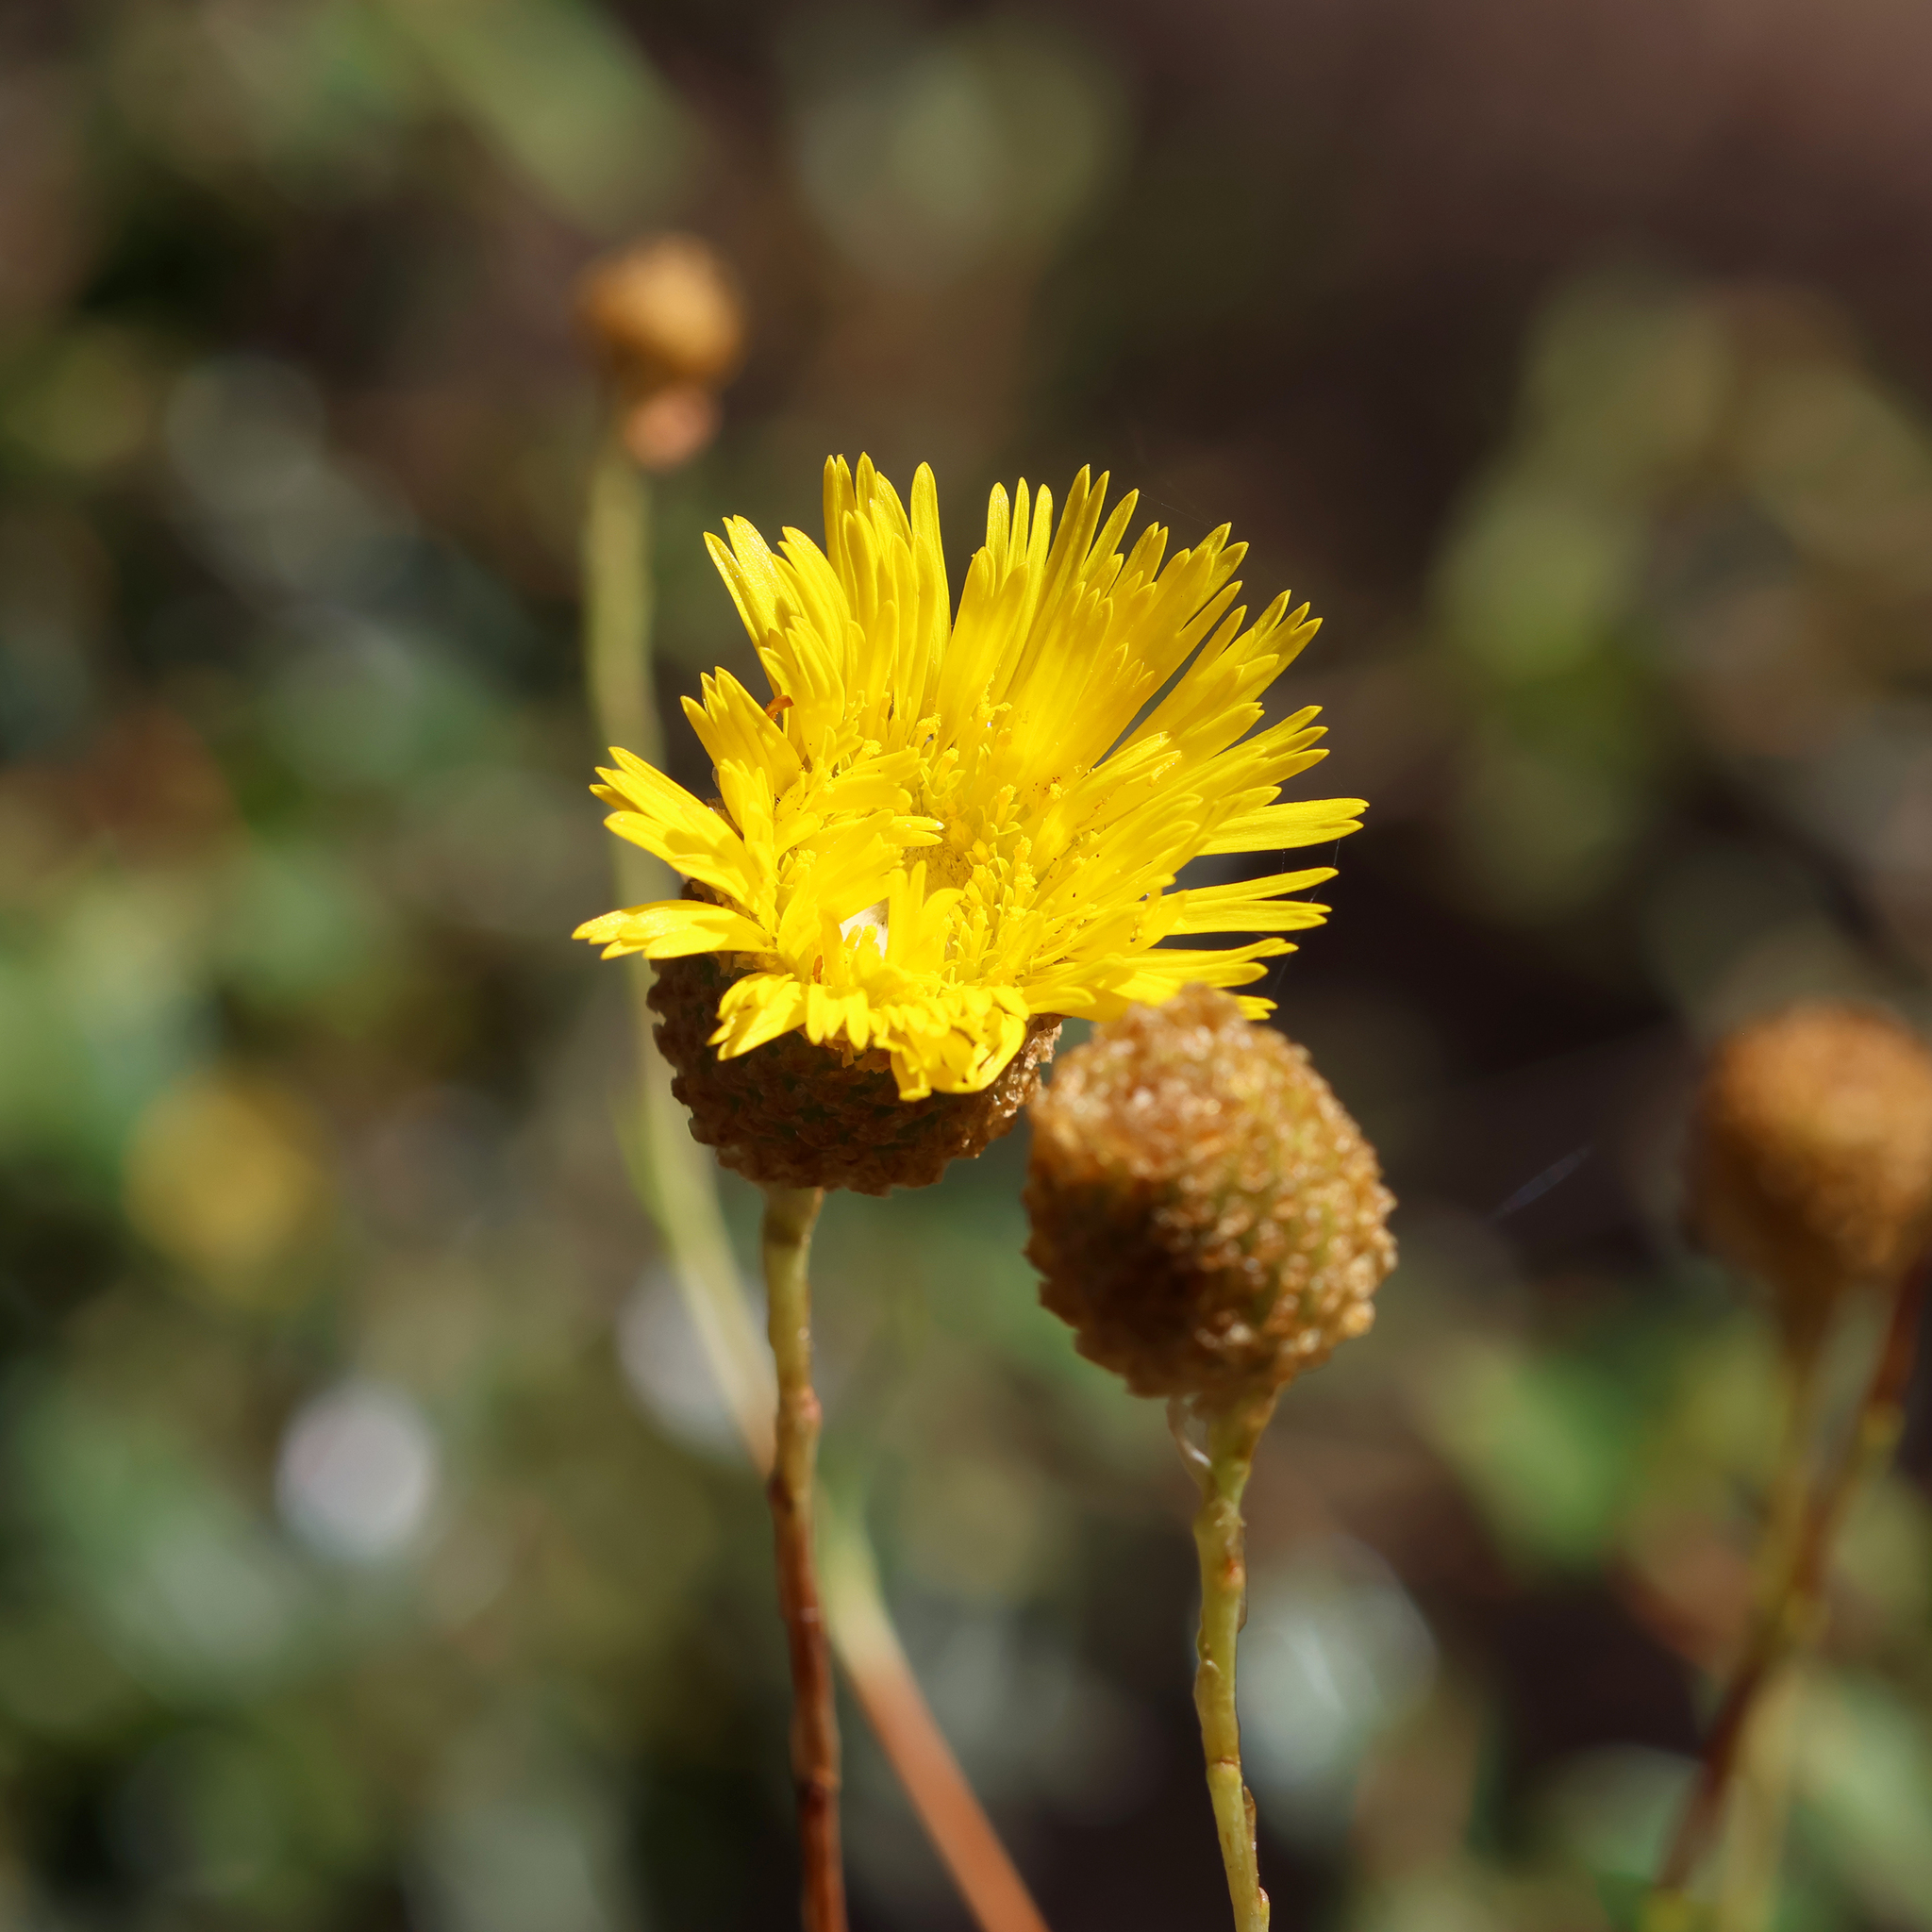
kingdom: Plantae
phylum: Tracheophyta
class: Magnoliopsida
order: Asterales
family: Asteraceae
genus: Podolepis
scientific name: Podolepis rugata
